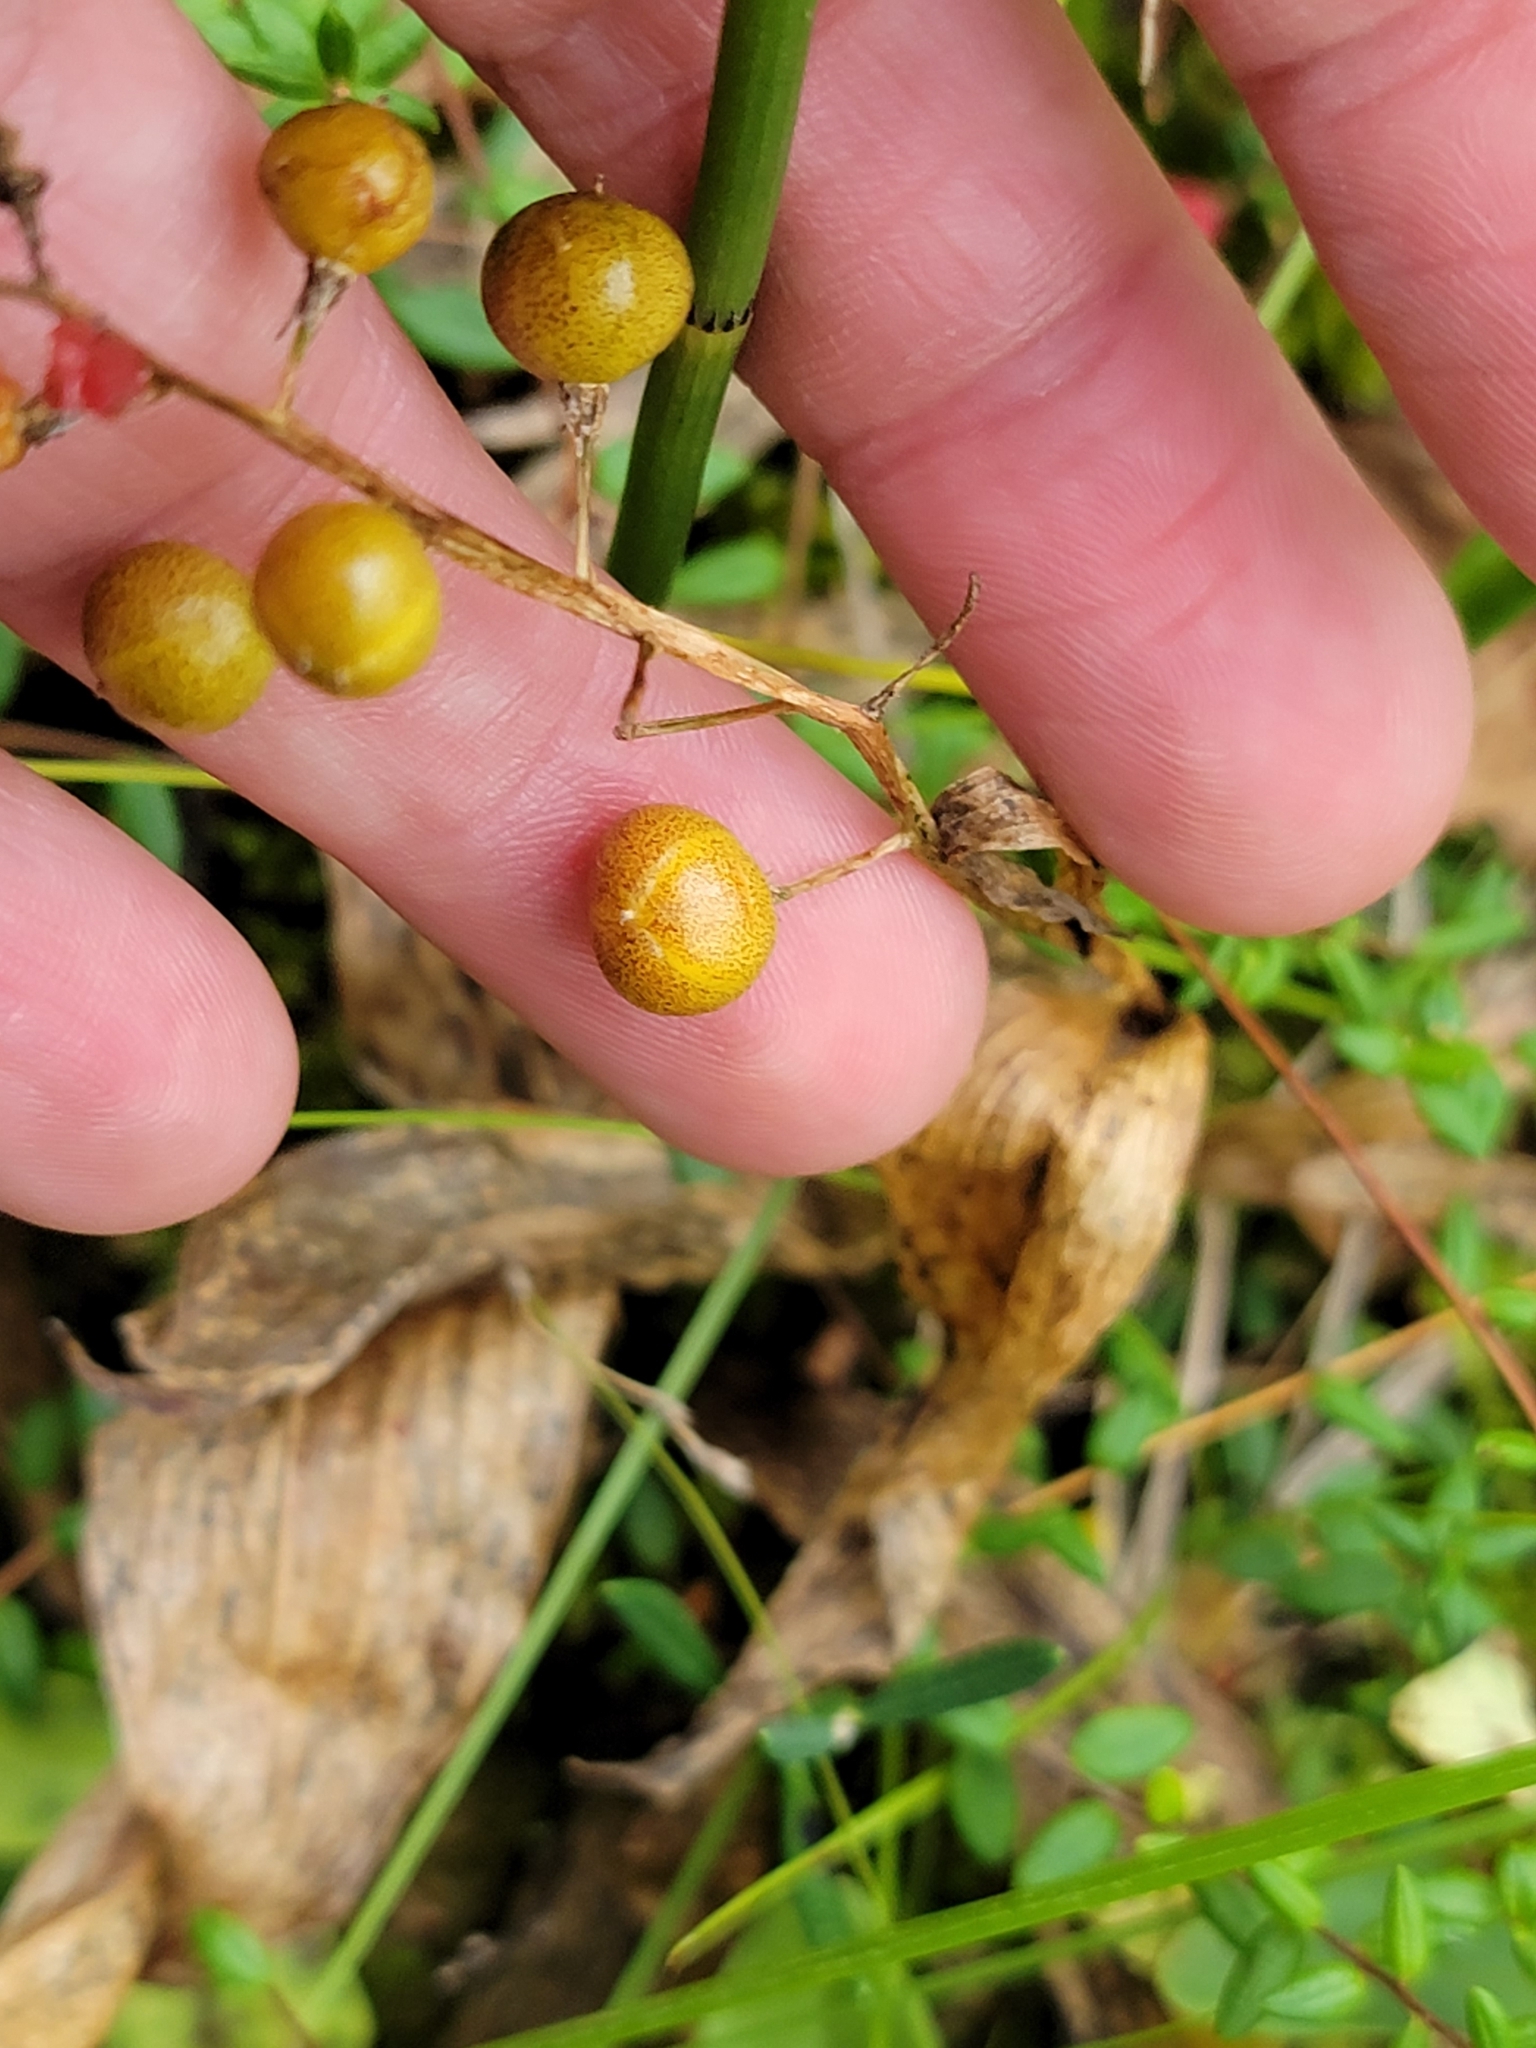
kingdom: Plantae
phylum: Tracheophyta
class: Liliopsida
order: Asparagales
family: Asparagaceae
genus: Maianthemum
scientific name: Maianthemum trifolium
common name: Swamp false solomon's seal
